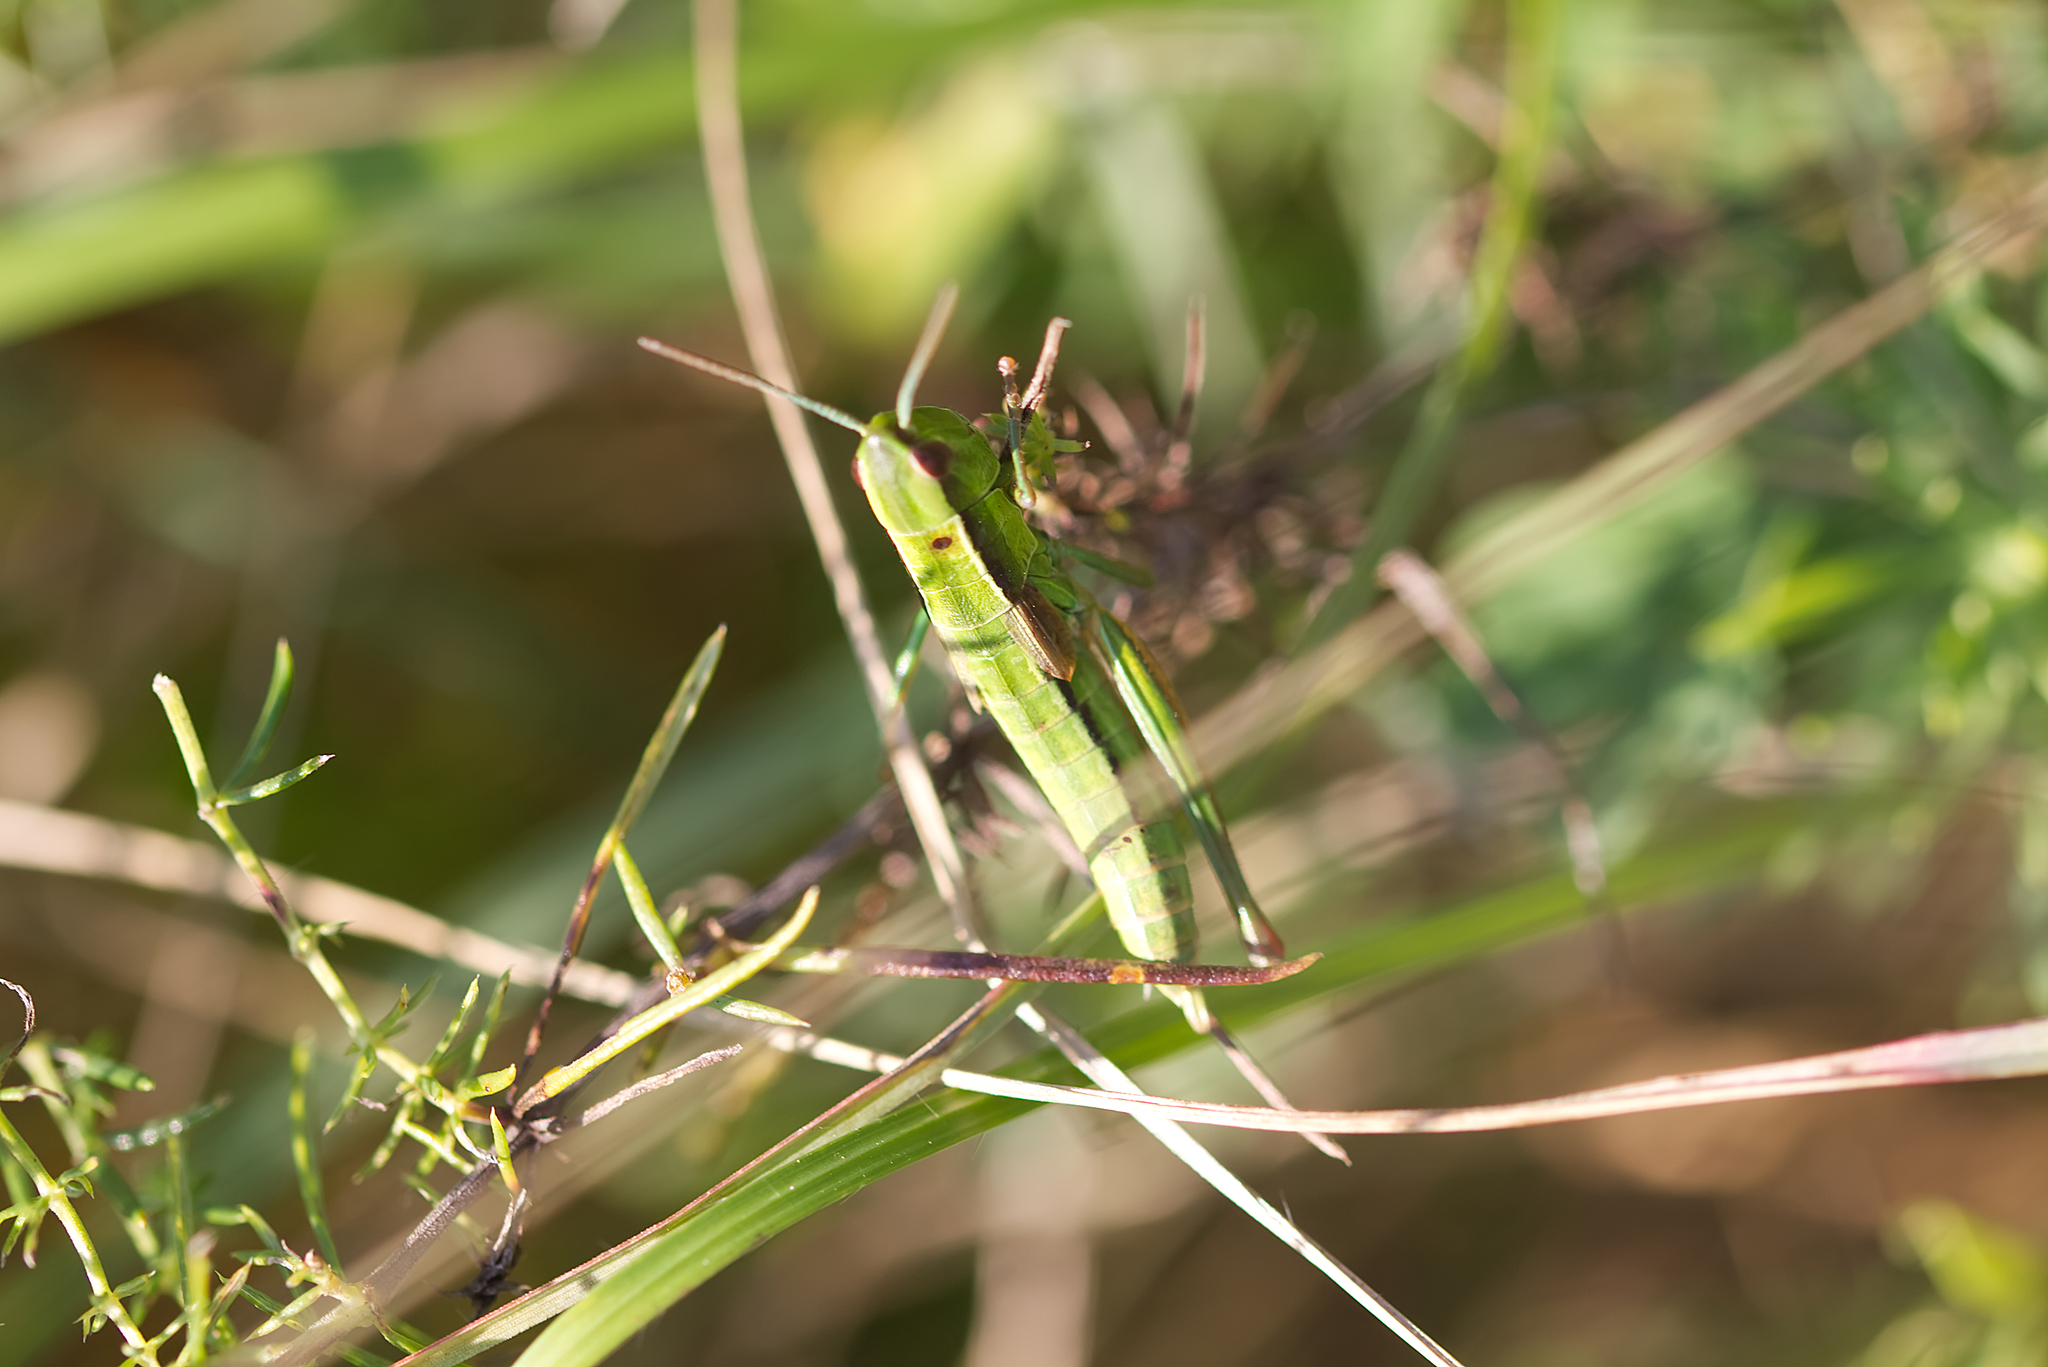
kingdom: Animalia
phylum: Arthropoda
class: Insecta
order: Orthoptera
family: Acrididae
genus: Euthystira
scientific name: Euthystira brachyptera
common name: Small gold grasshopper
